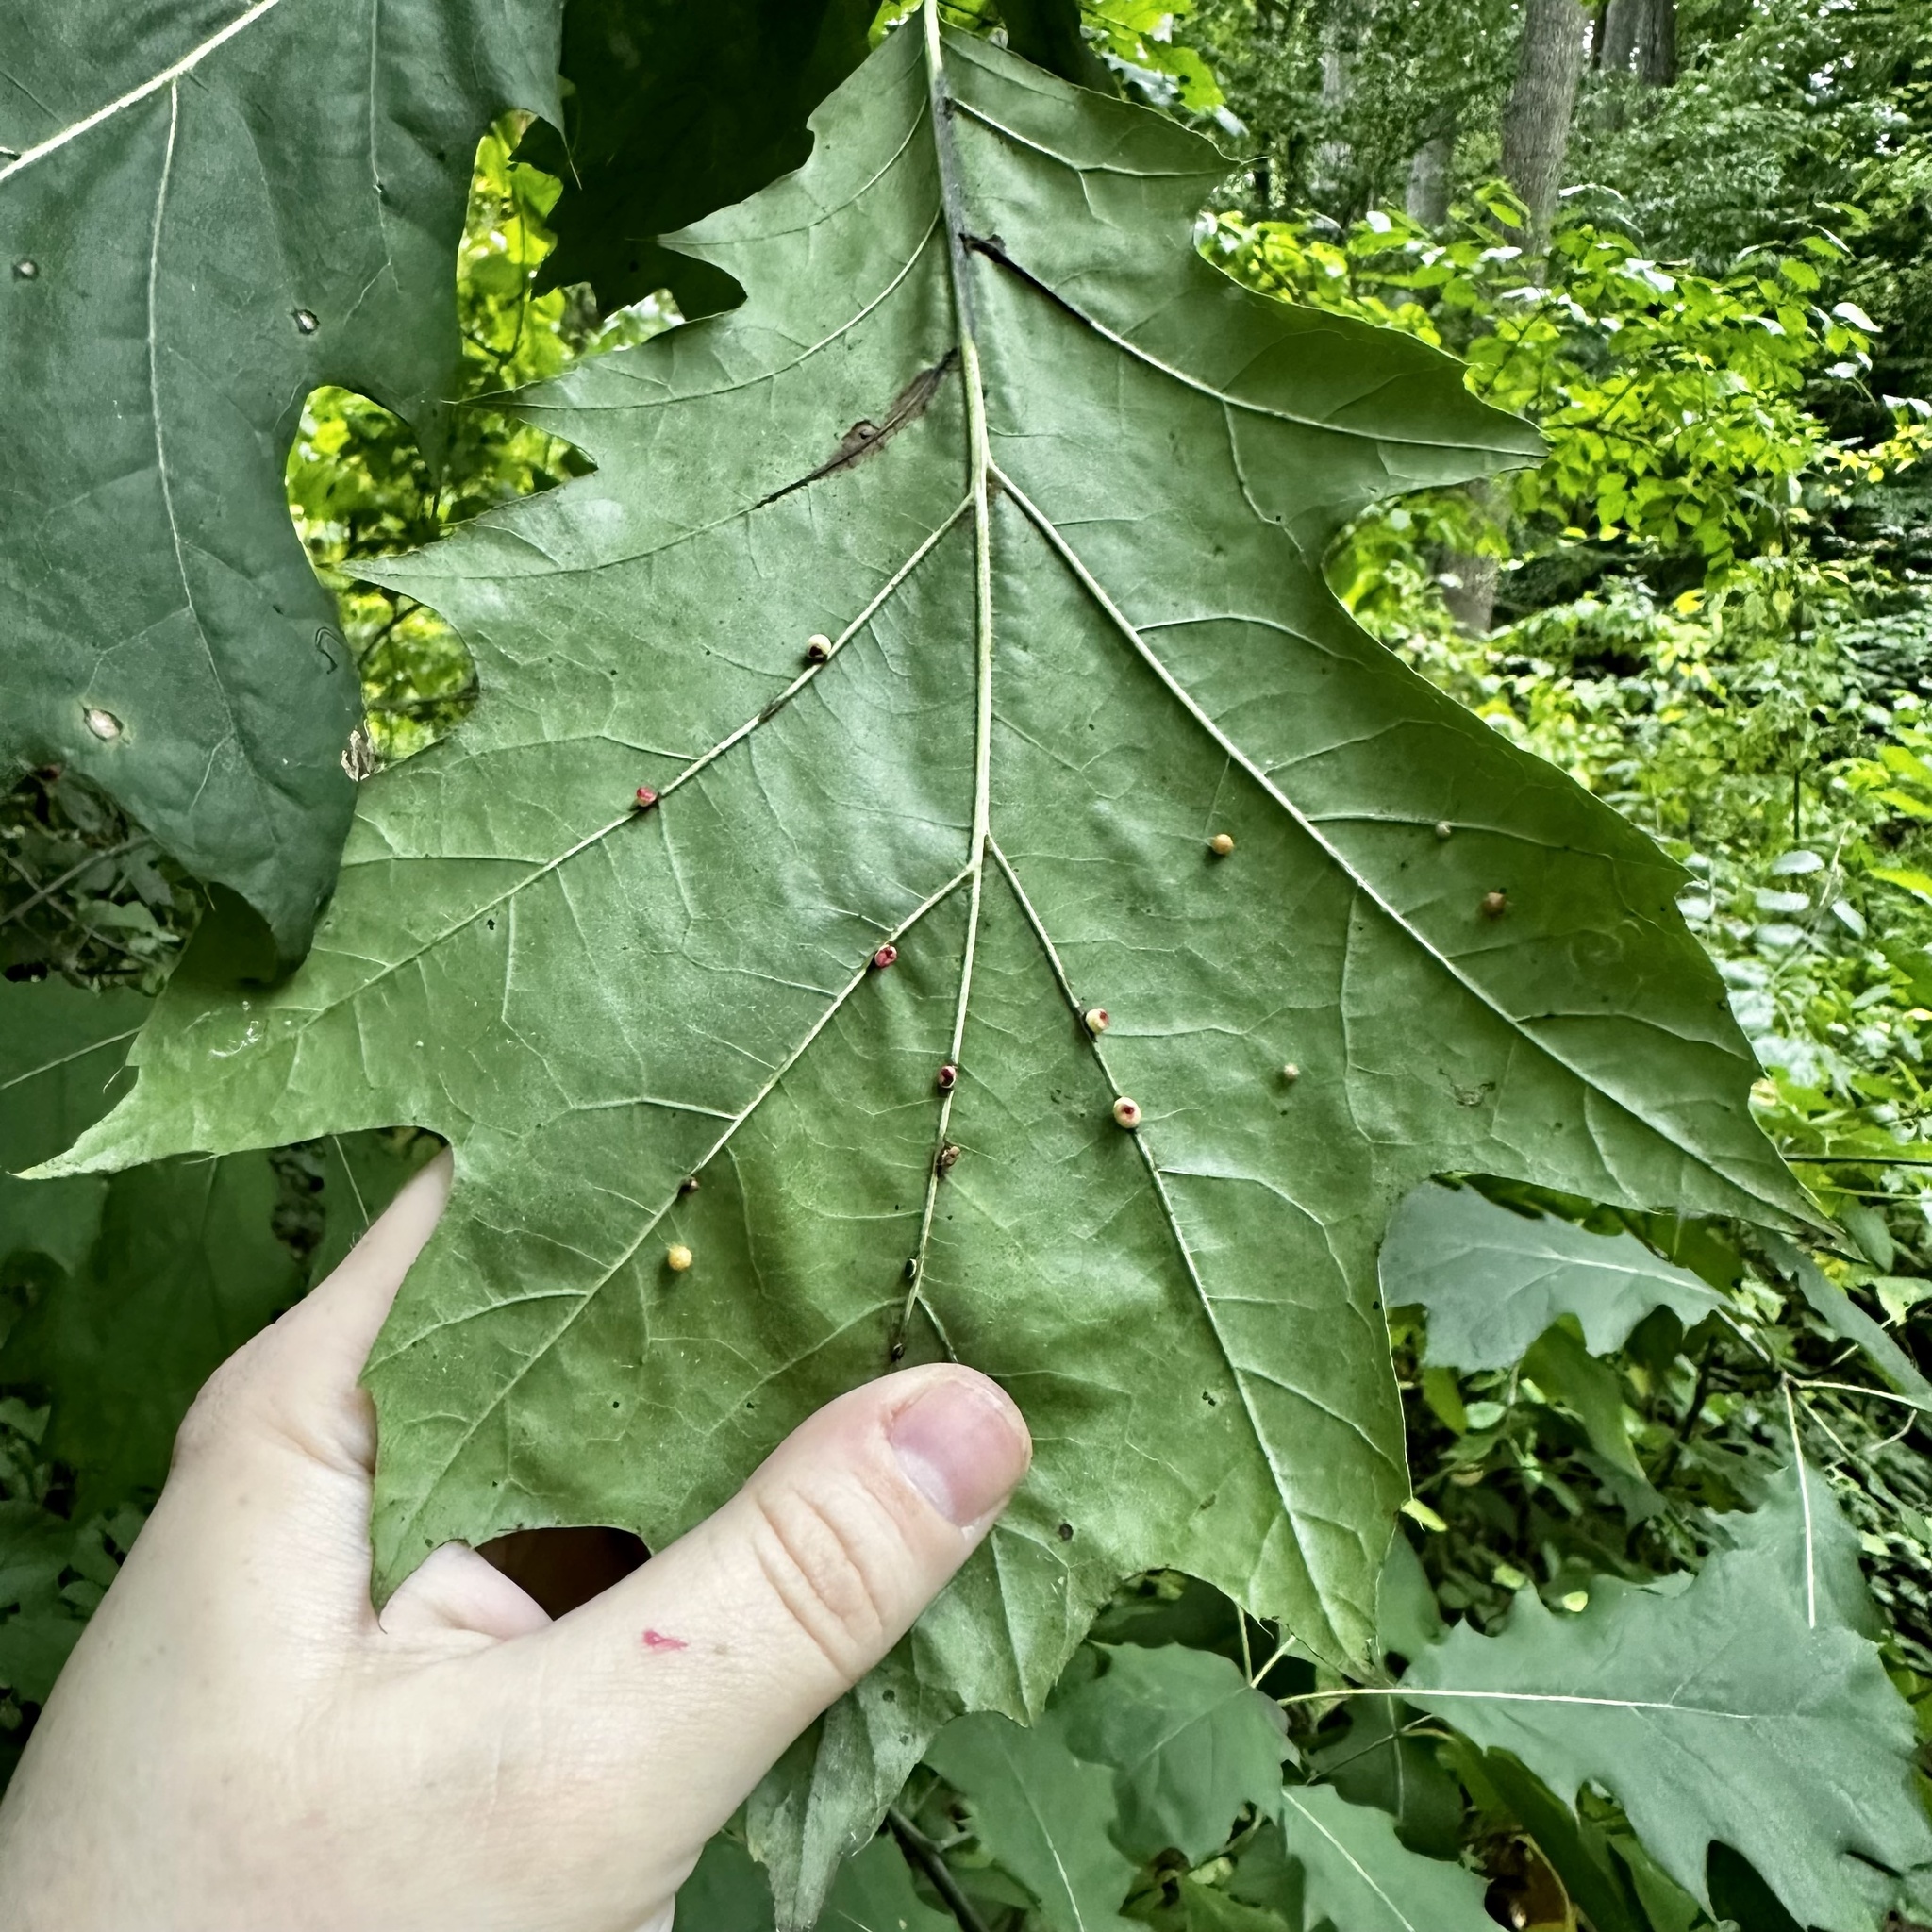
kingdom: Animalia
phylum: Arthropoda
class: Insecta
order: Hymenoptera
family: Cynipidae
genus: Kokkocynips
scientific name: Kokkocynips rileyi
